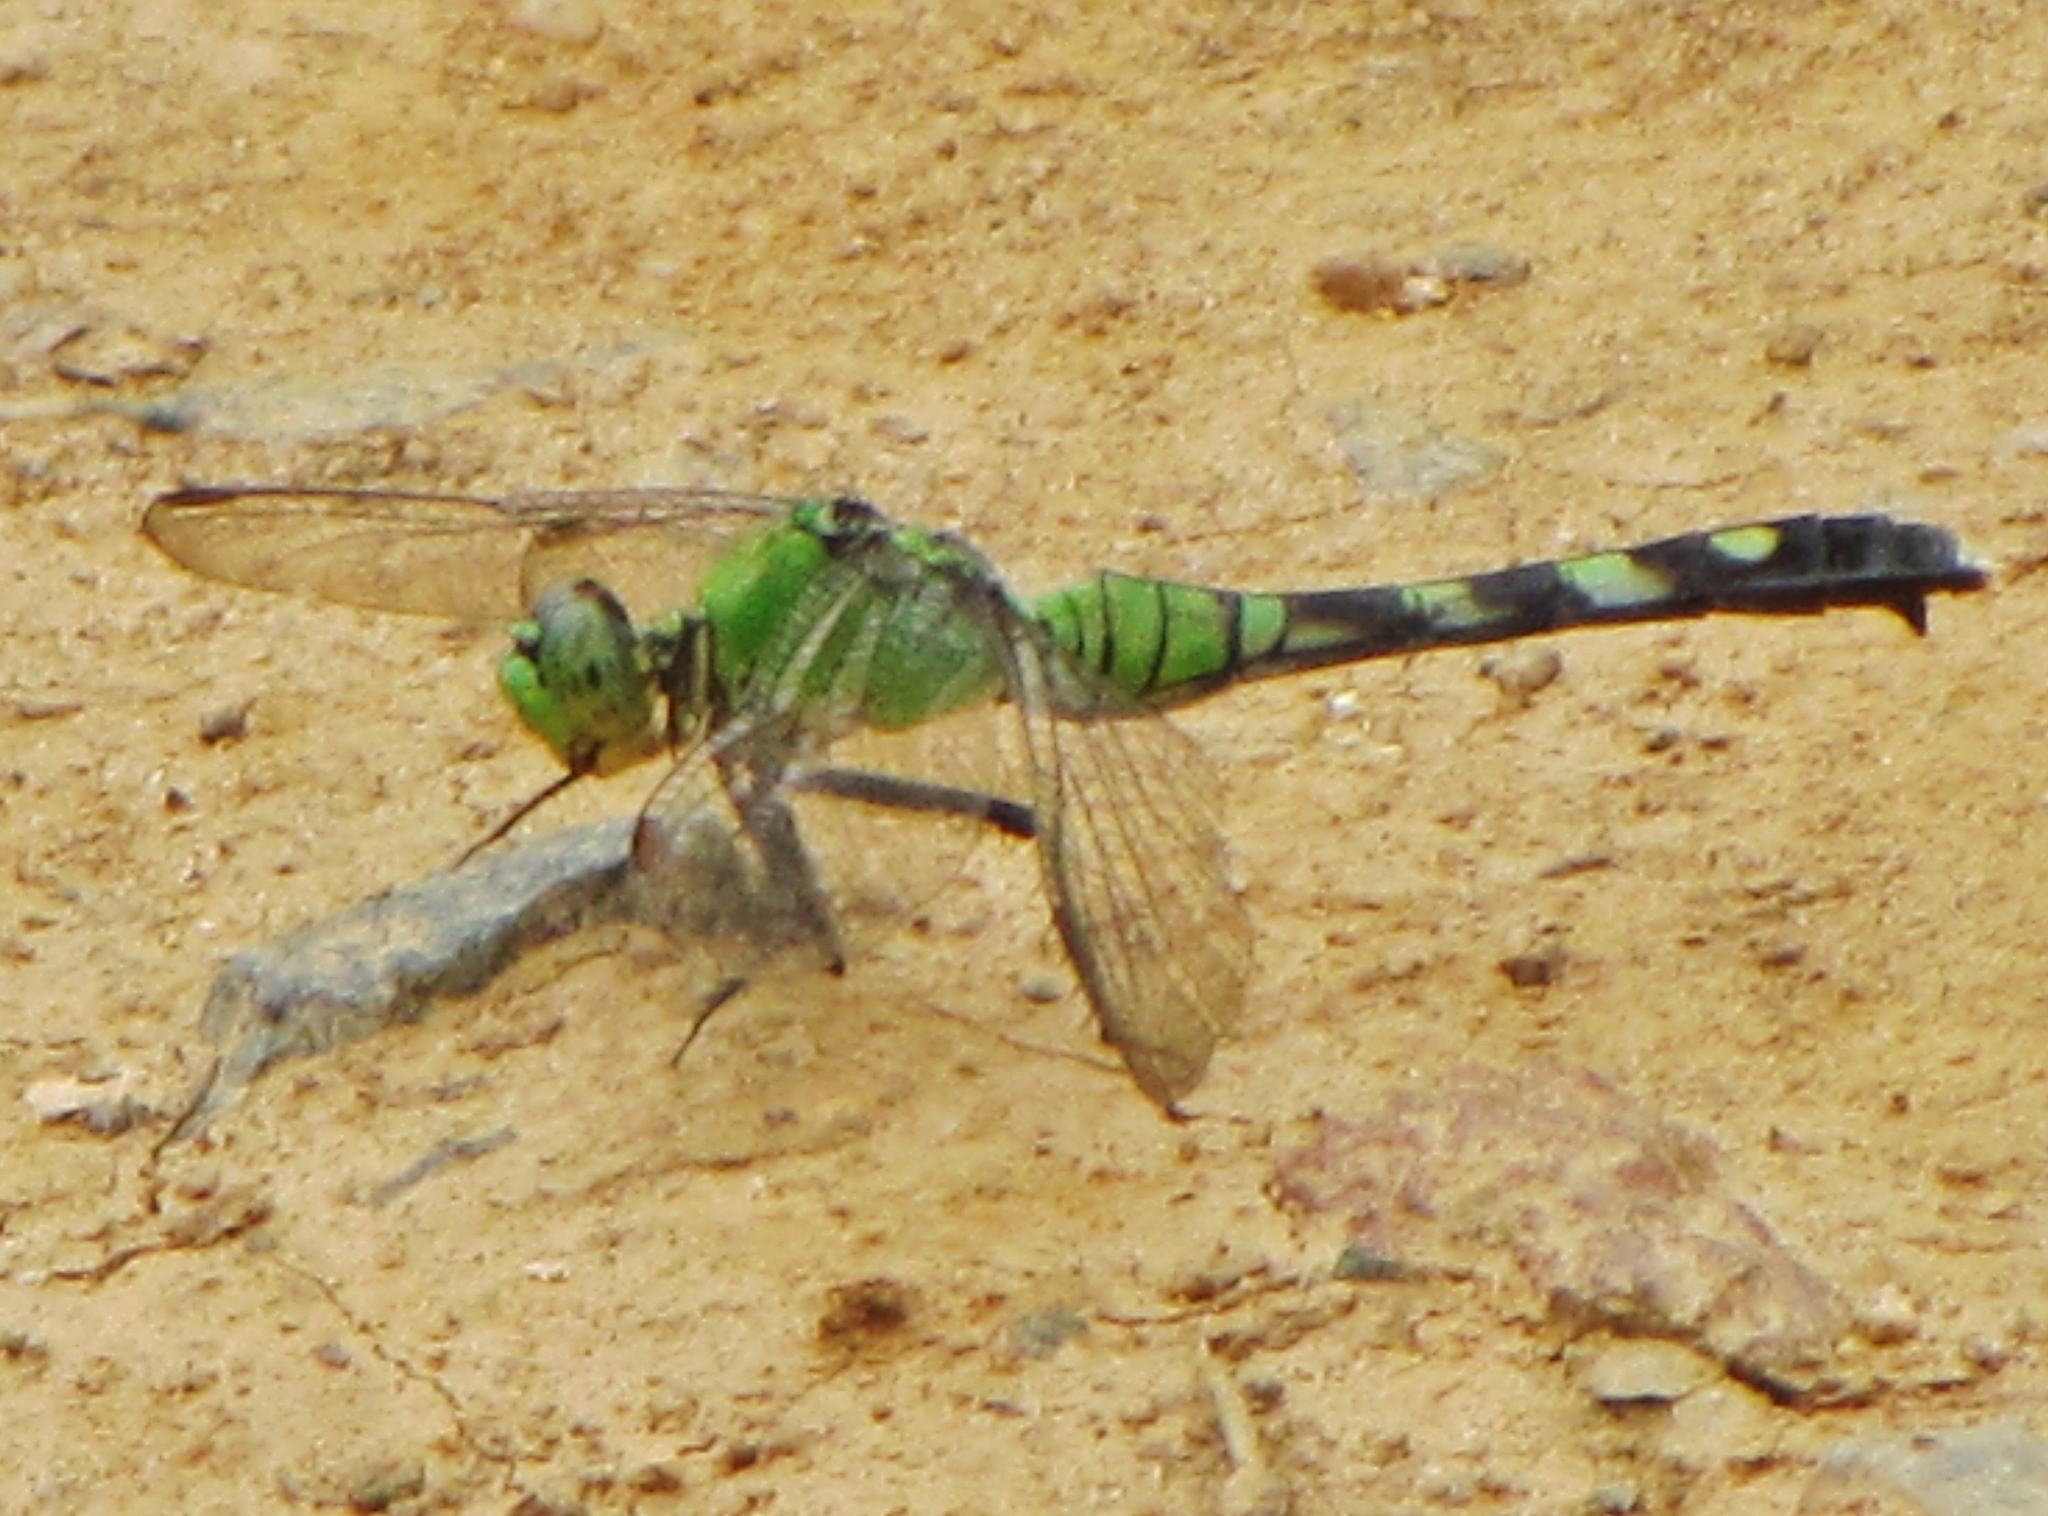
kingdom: Animalia
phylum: Arthropoda
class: Insecta
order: Odonata
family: Libellulidae
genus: Erythemis
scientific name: Erythemis simplicicollis
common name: Eastern pondhawk
